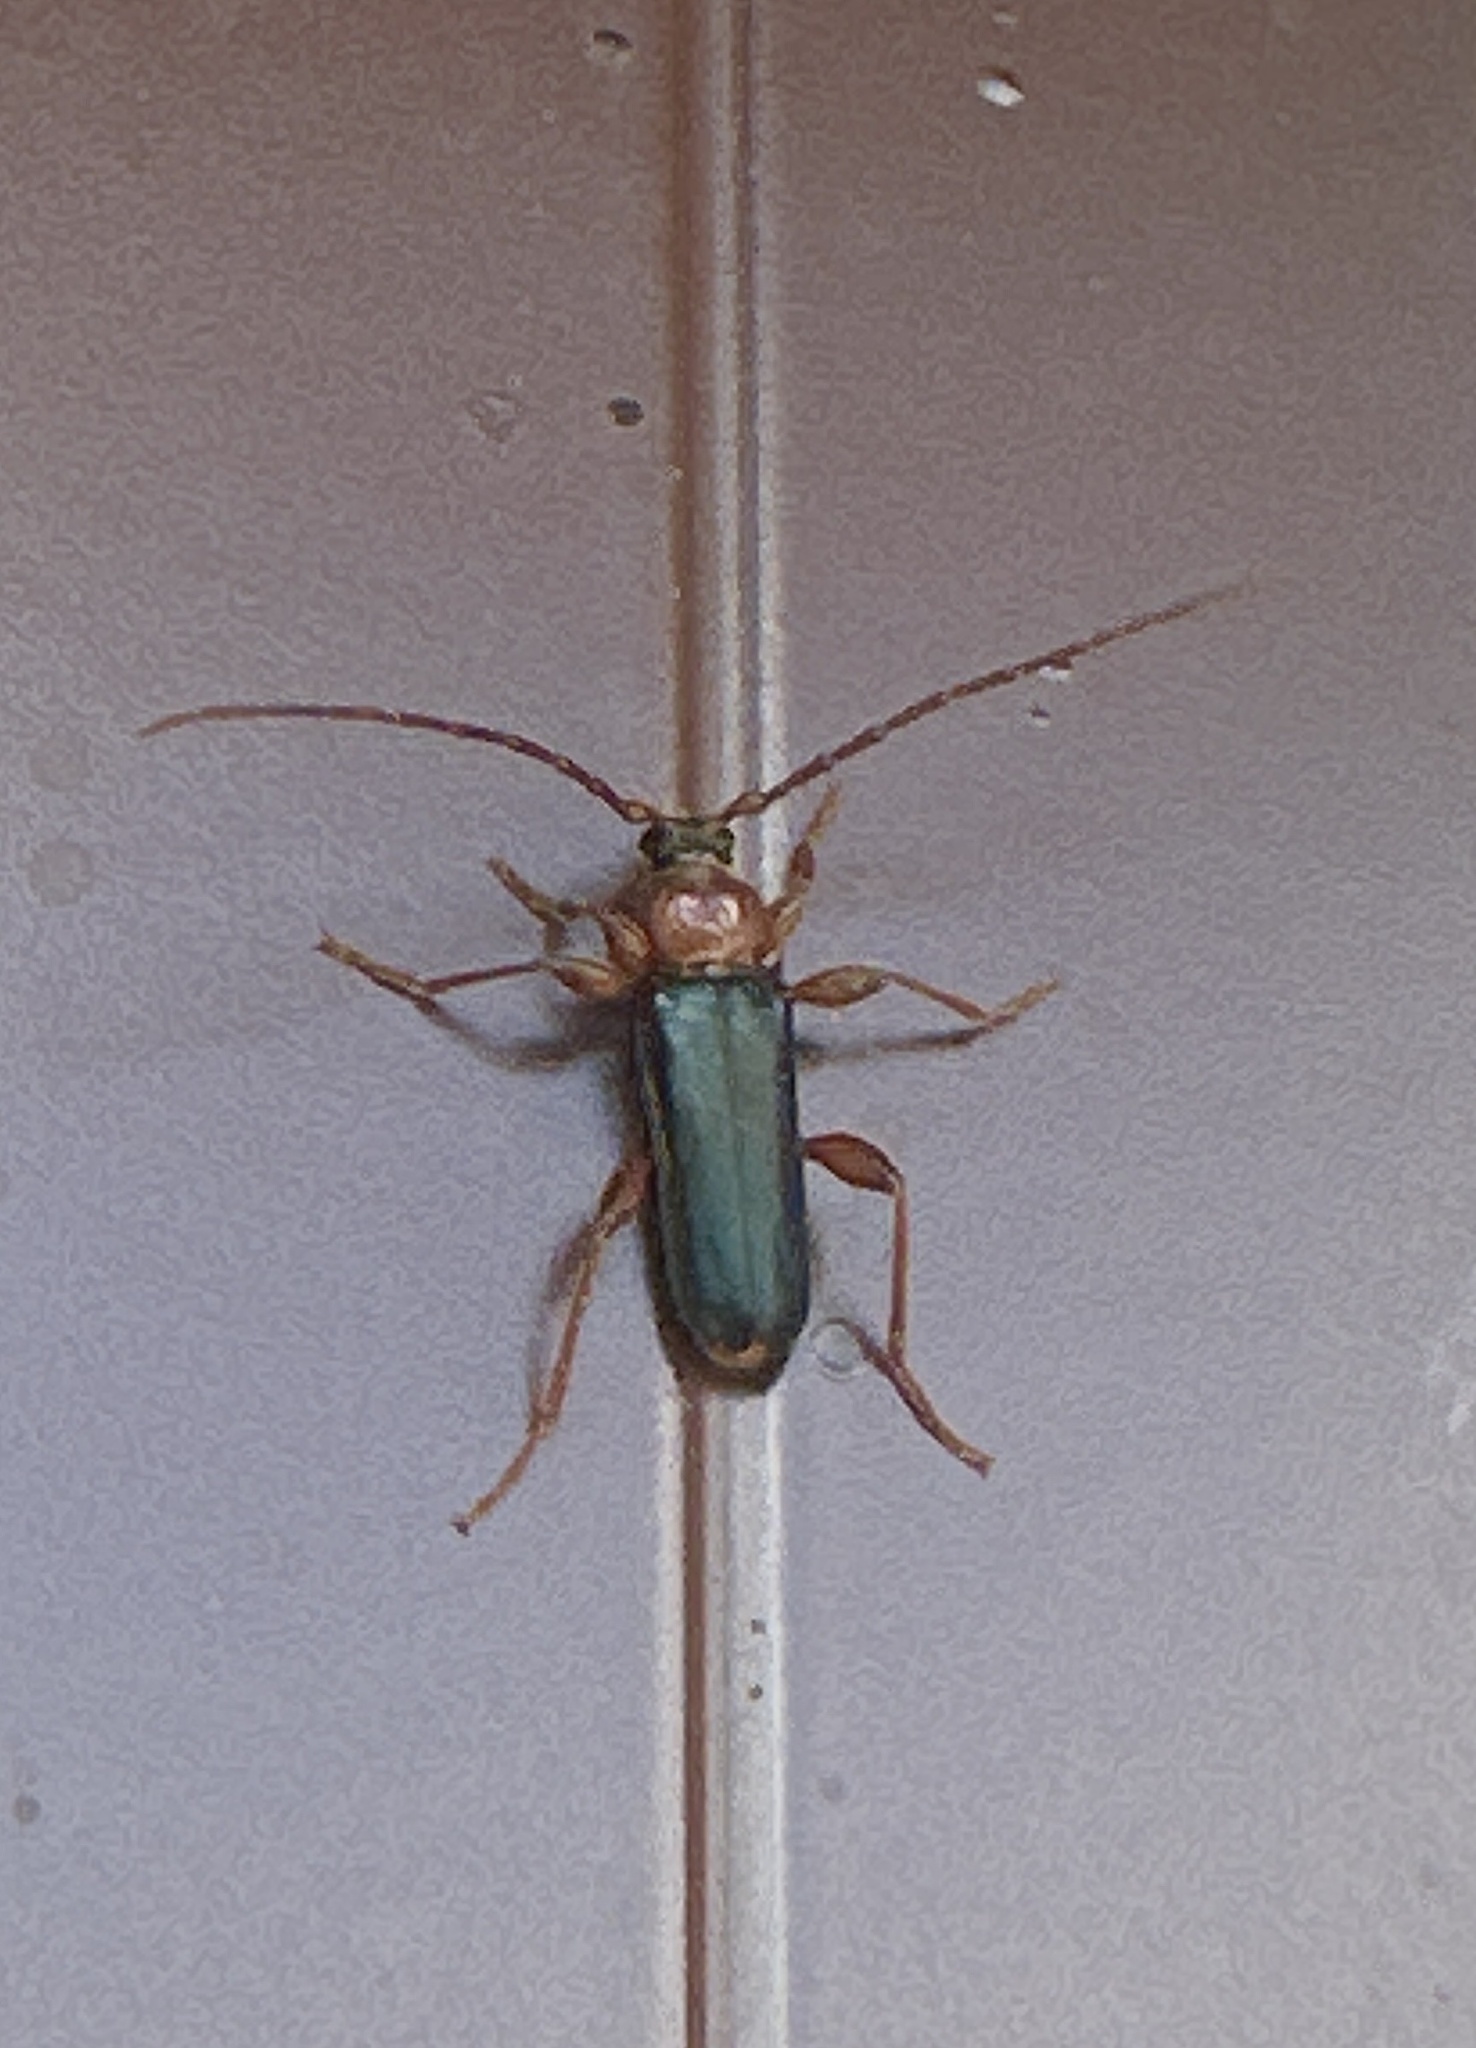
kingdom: Animalia
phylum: Arthropoda
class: Insecta
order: Coleoptera
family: Cerambycidae
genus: Phymatodes
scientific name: Phymatodes testaceus
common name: Long-horned beetle
